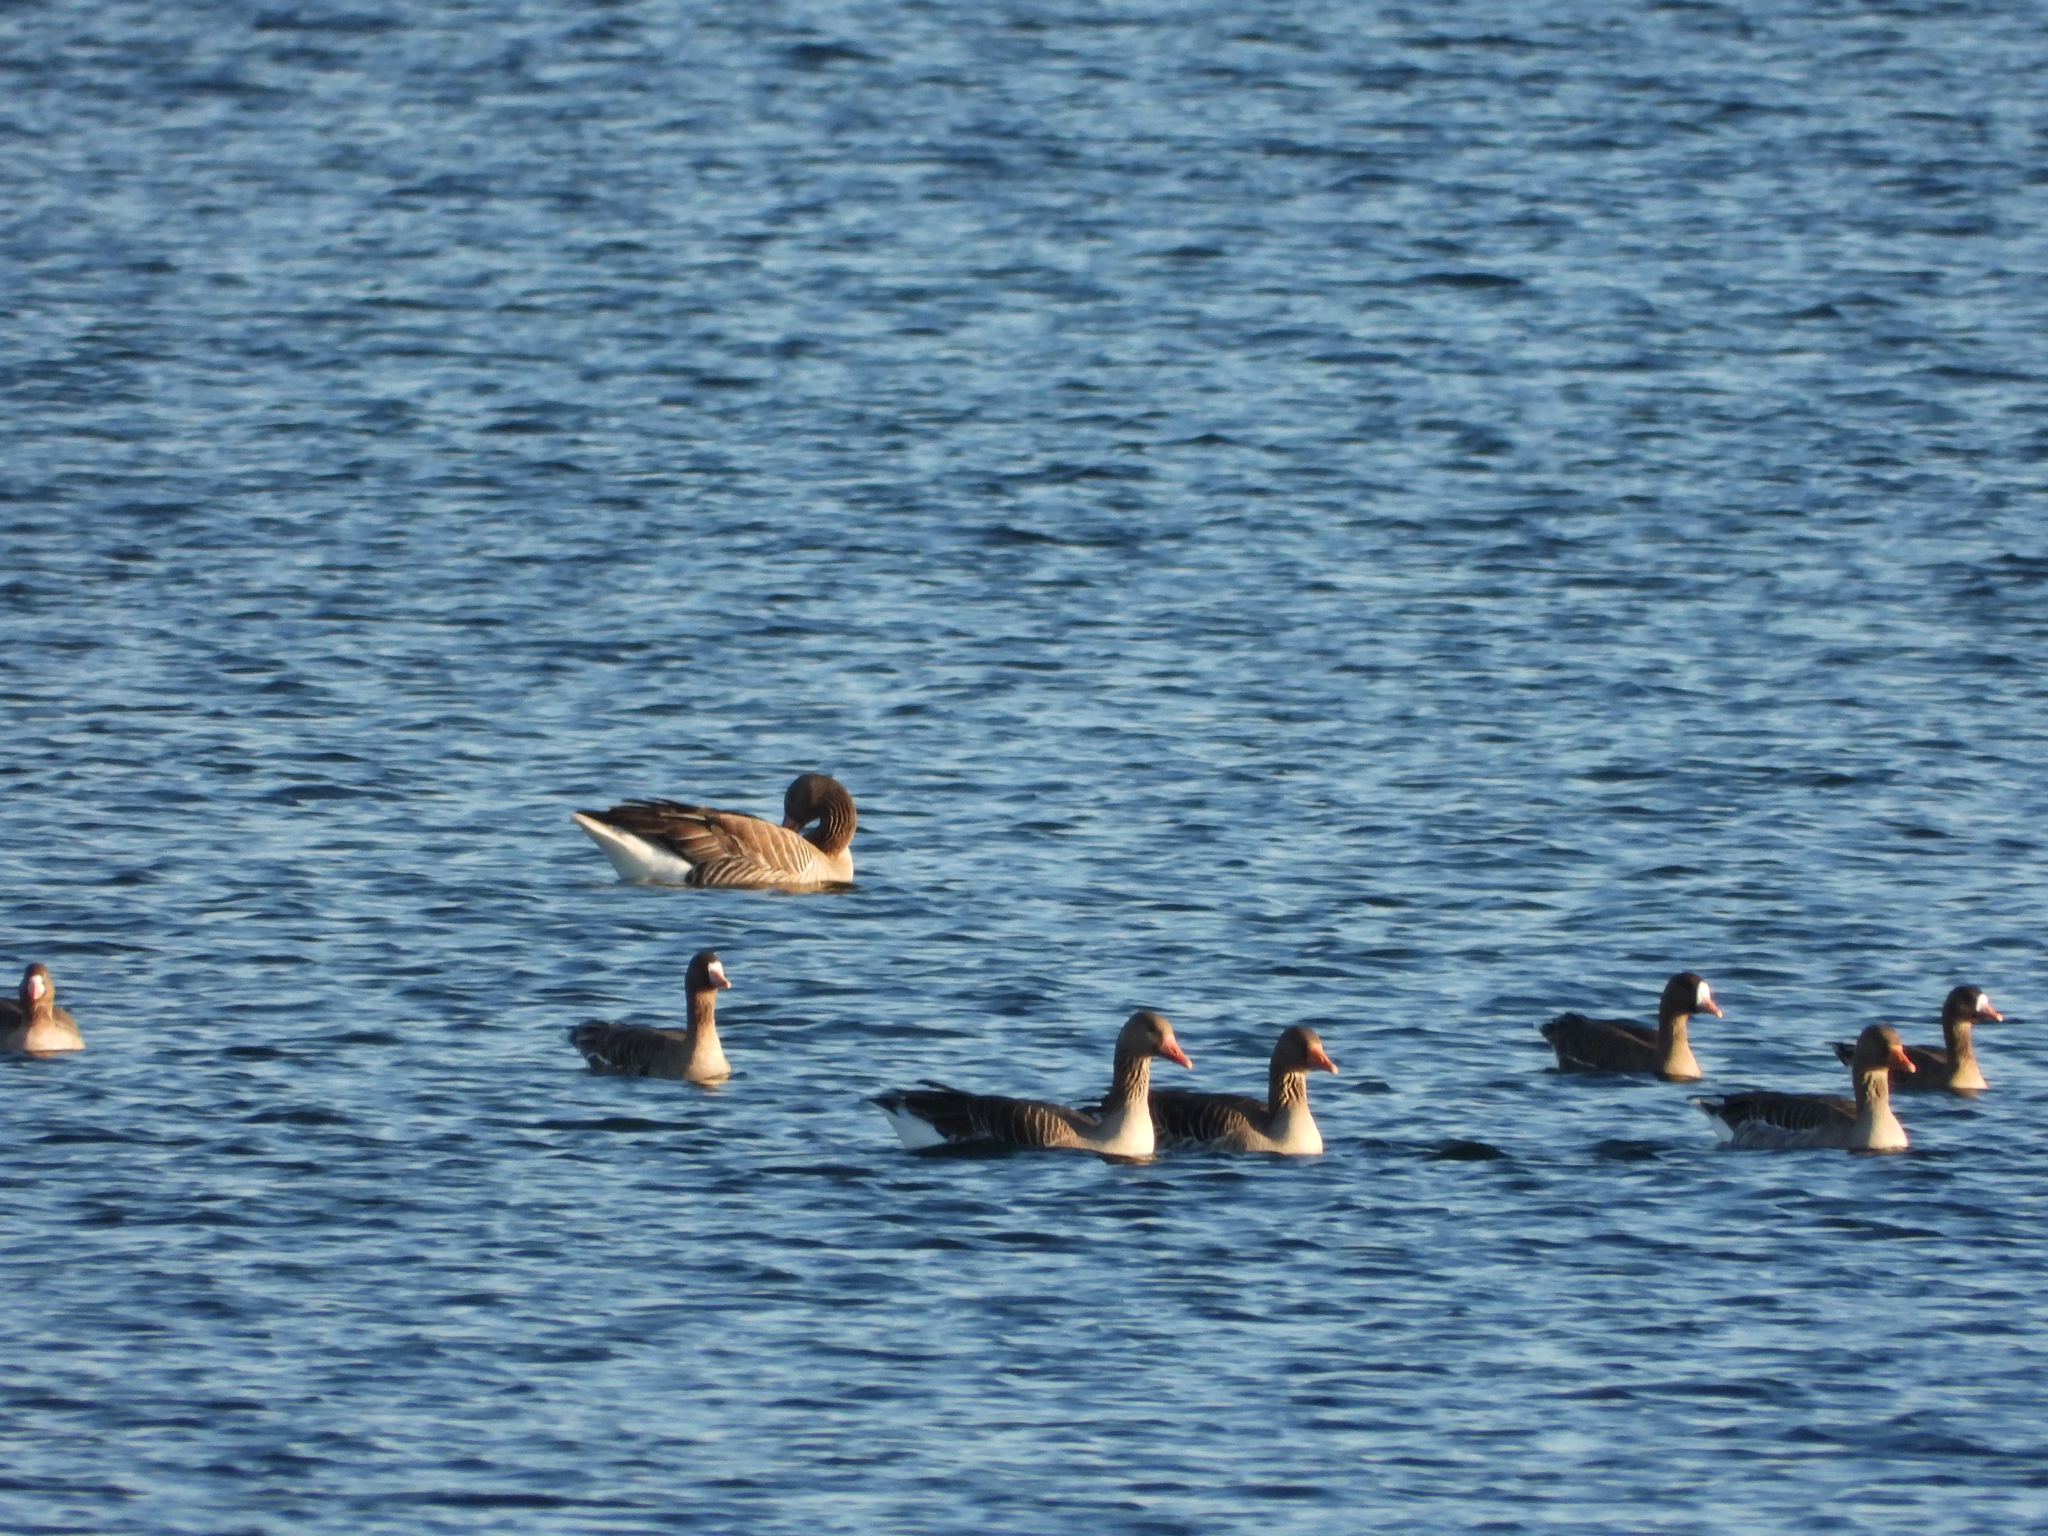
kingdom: Animalia
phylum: Chordata
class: Aves
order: Anseriformes
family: Anatidae
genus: Anser
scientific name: Anser albifrons
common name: Greater white-fronted goose
